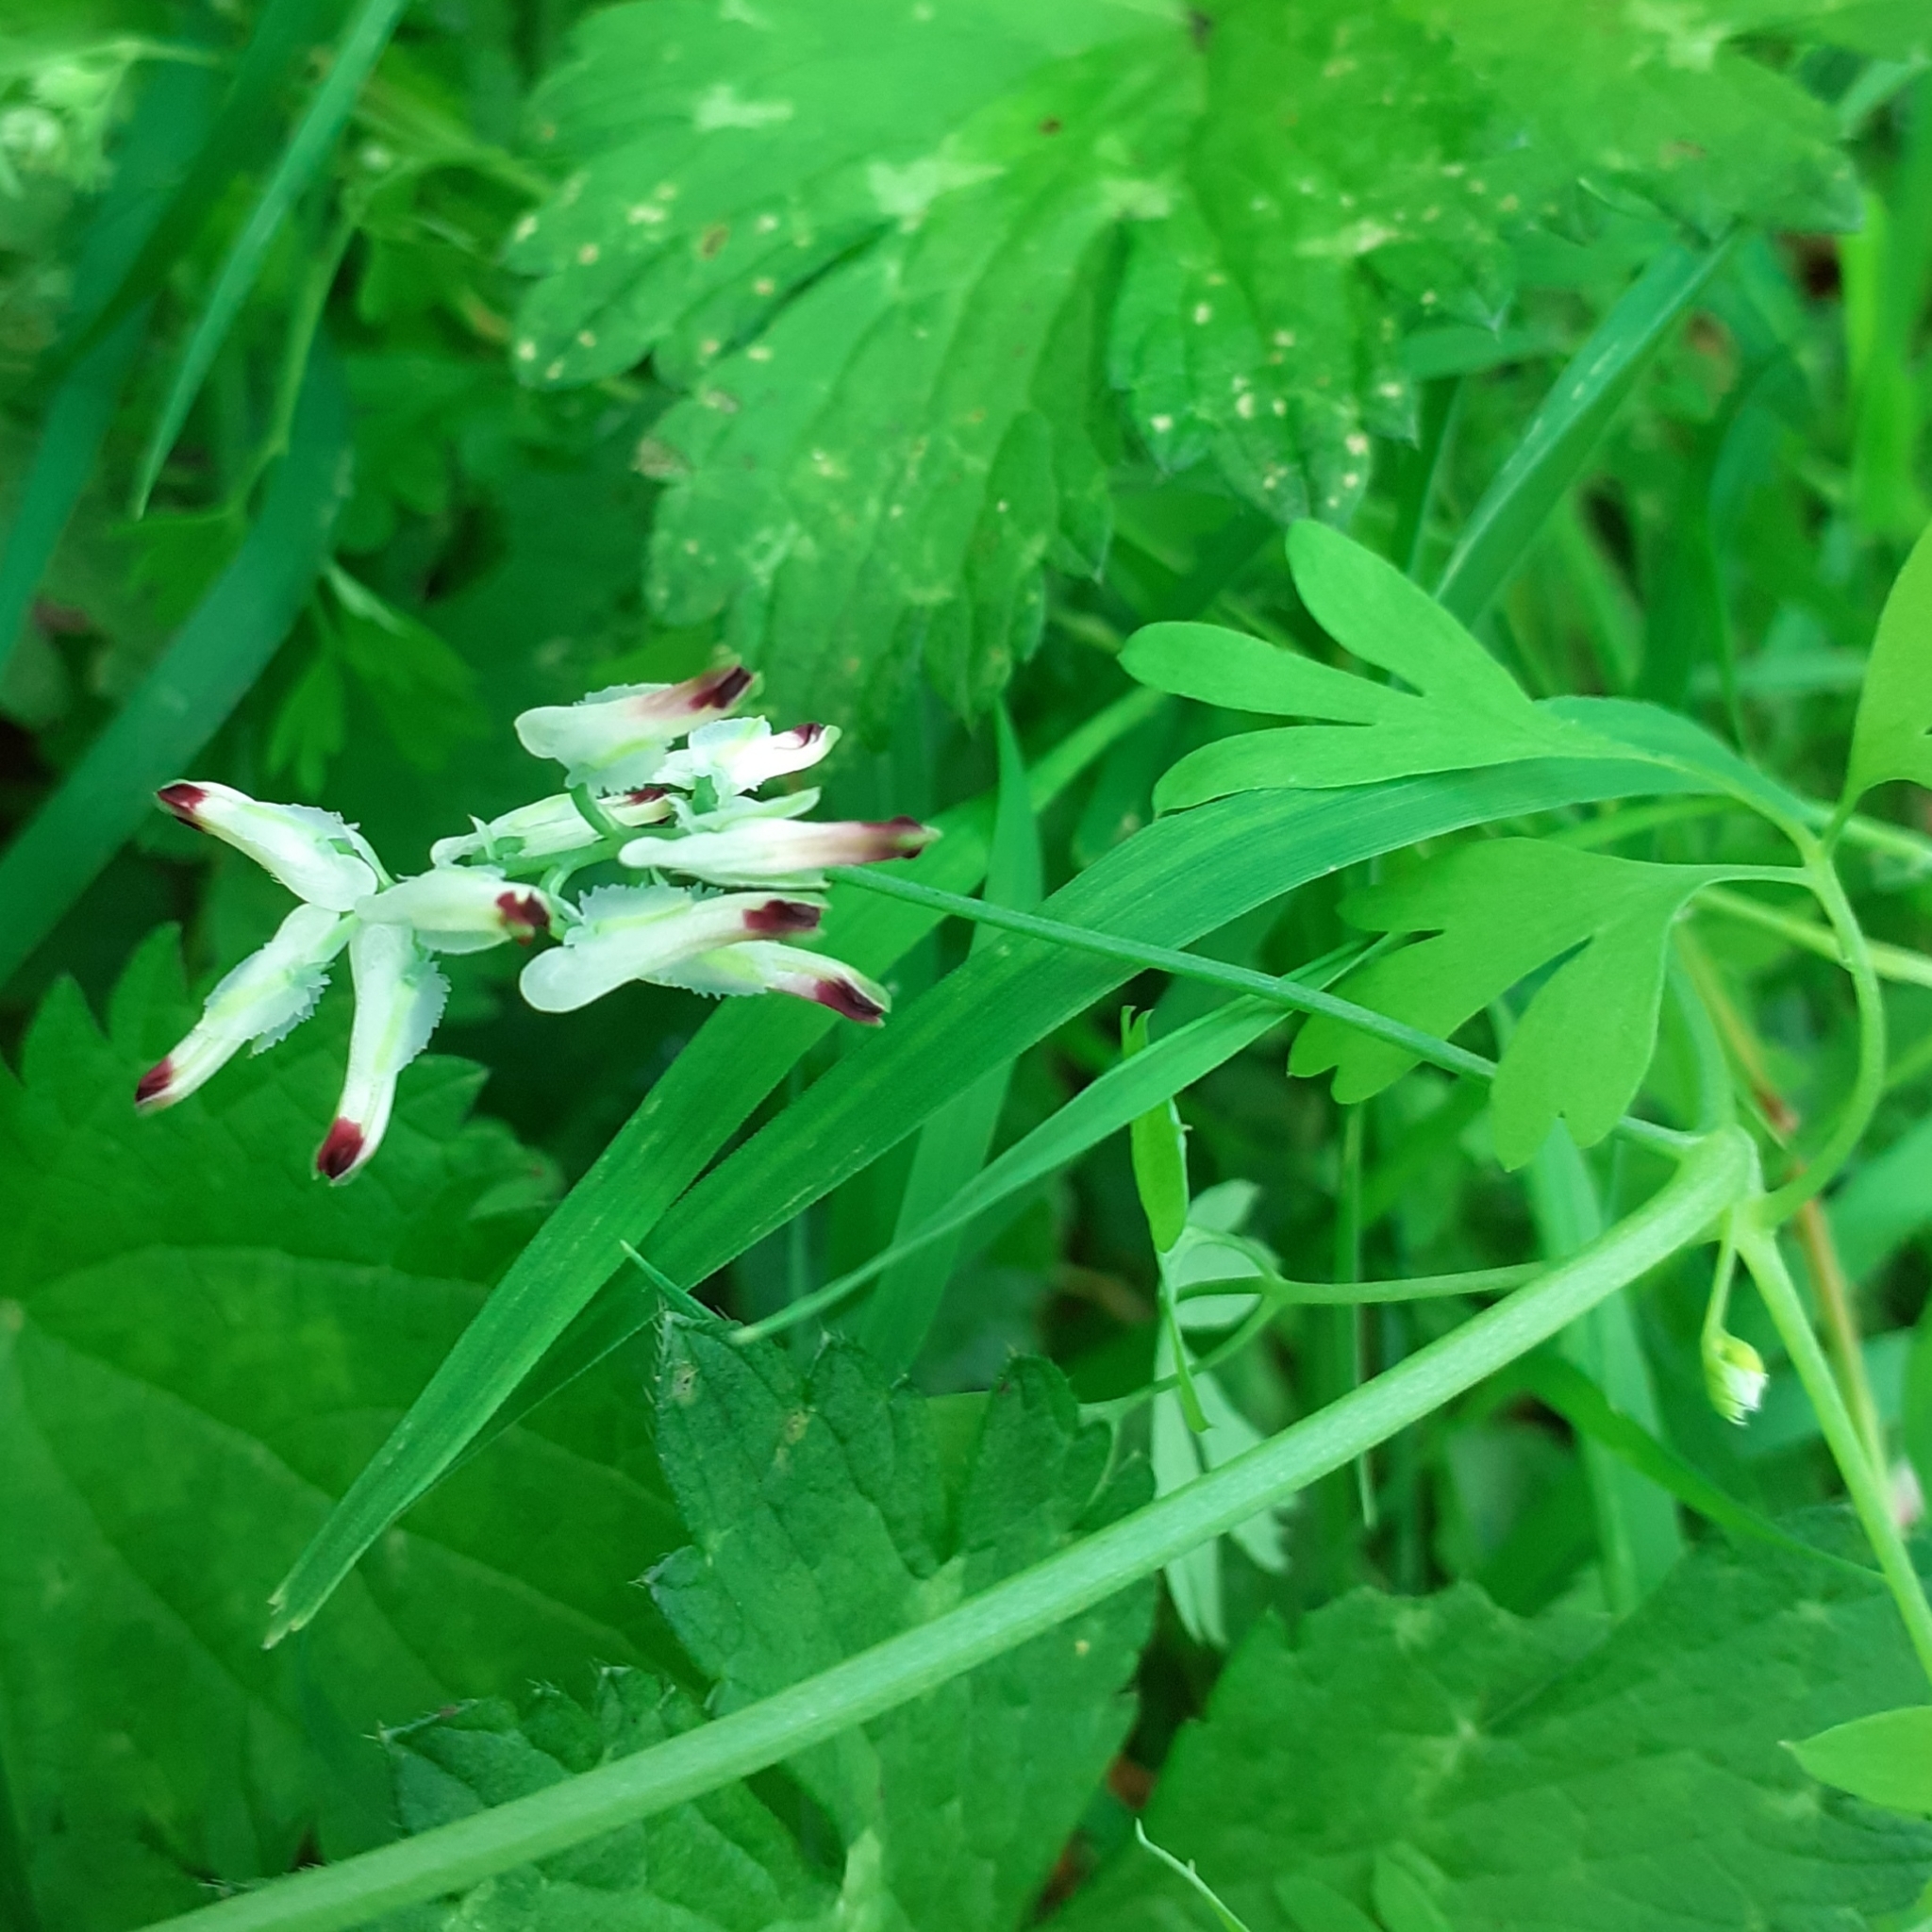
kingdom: Plantae
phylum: Tracheophyta
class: Magnoliopsida
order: Ranunculales
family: Papaveraceae
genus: Fumaria
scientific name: Fumaria capreolata
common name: White ramping-fumitory
